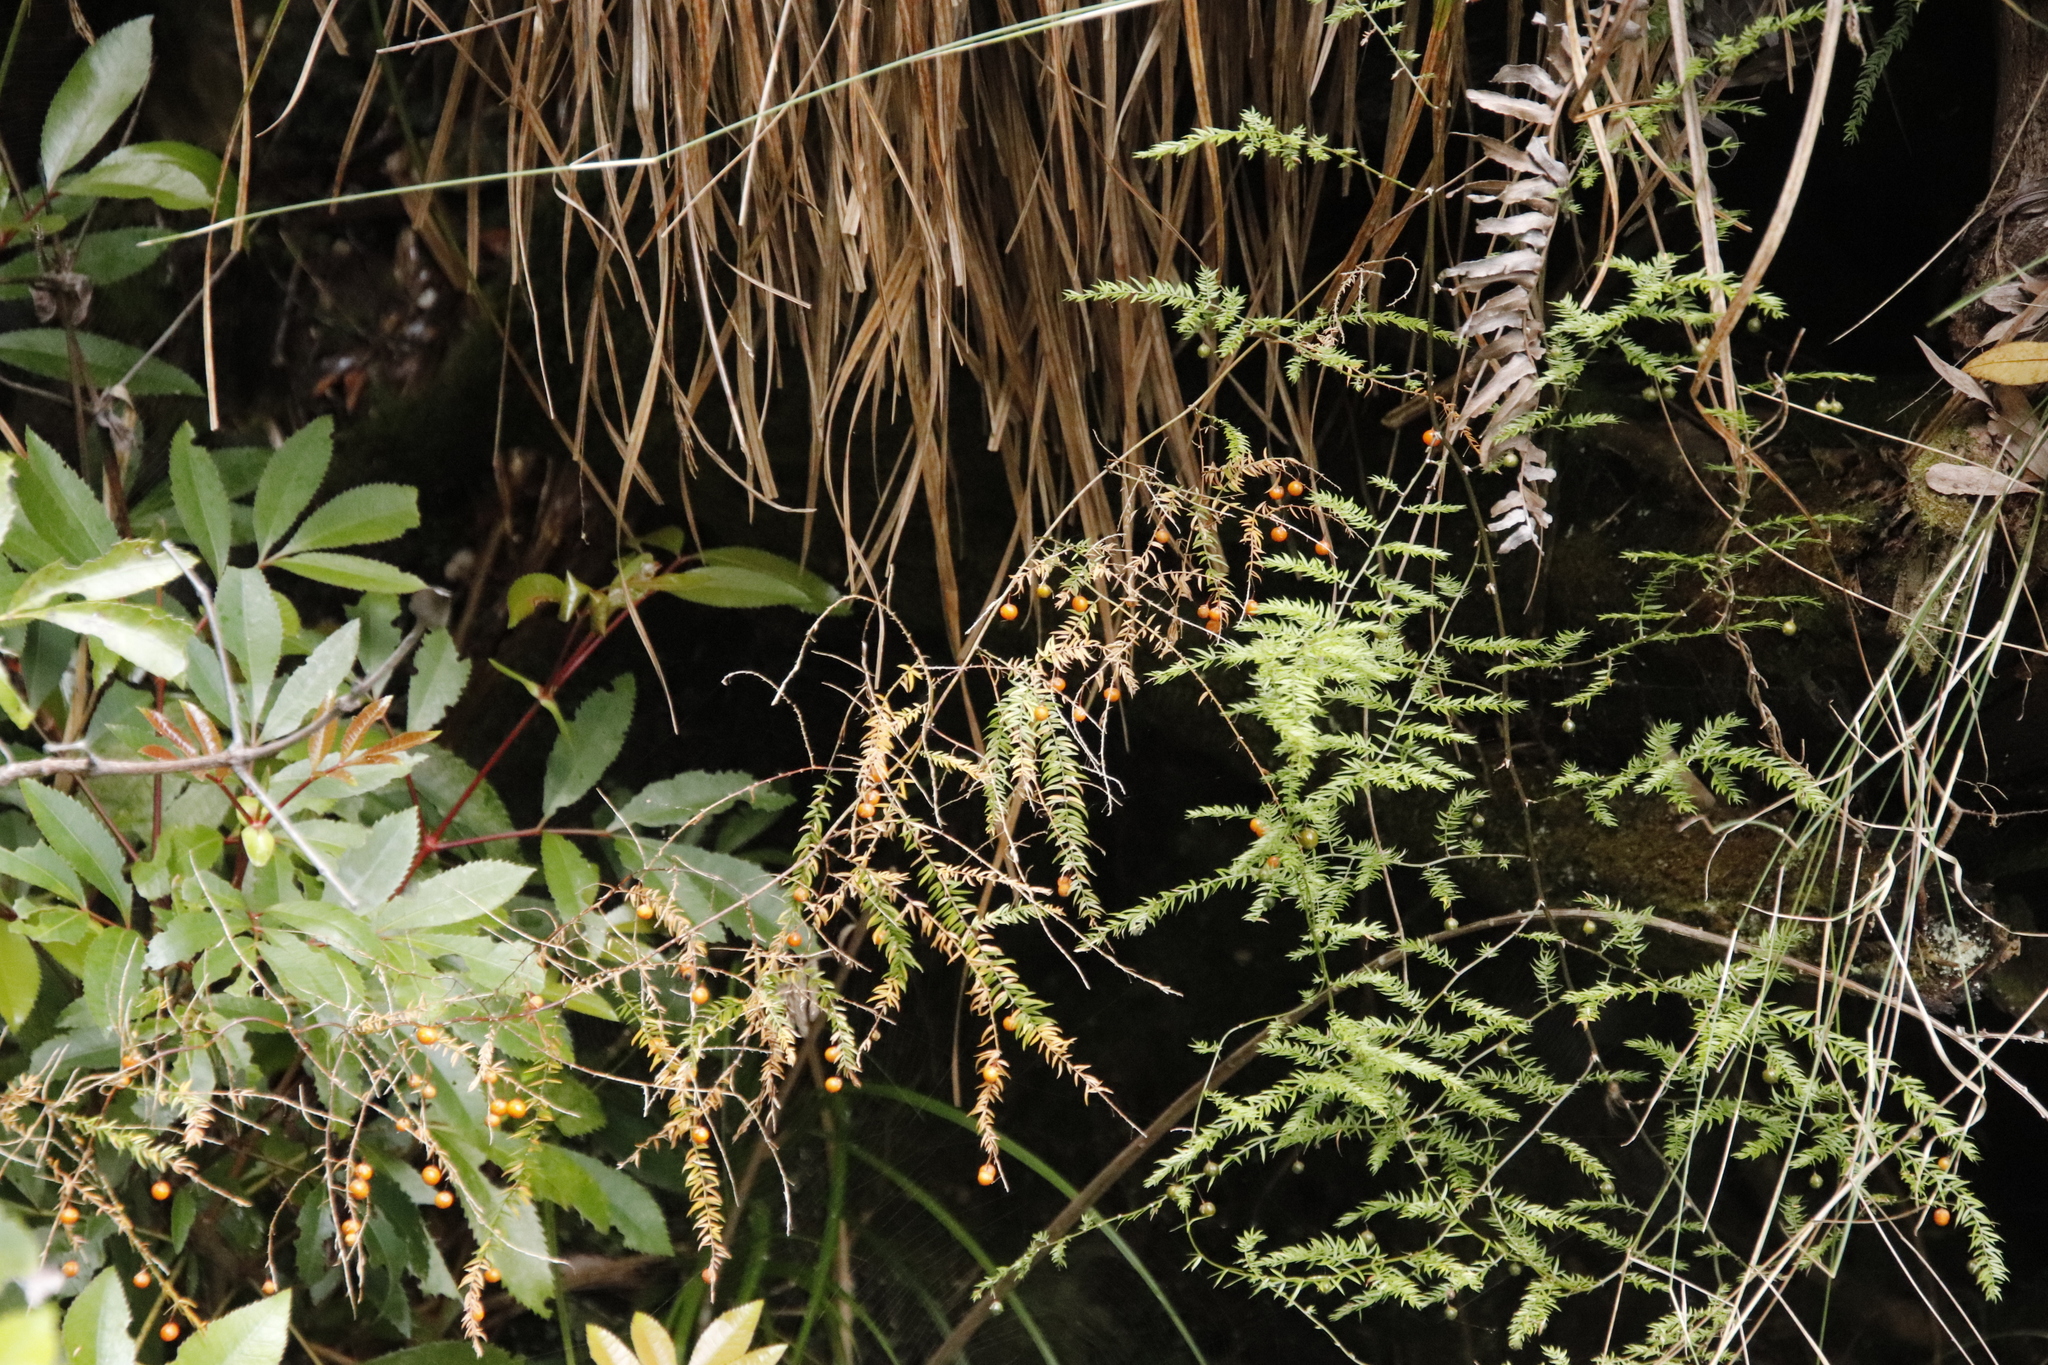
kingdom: Plantae
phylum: Tracheophyta
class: Liliopsida
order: Asparagales
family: Asparagaceae
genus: Asparagus
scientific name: Asparagus scandens
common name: Asparagus-fern
